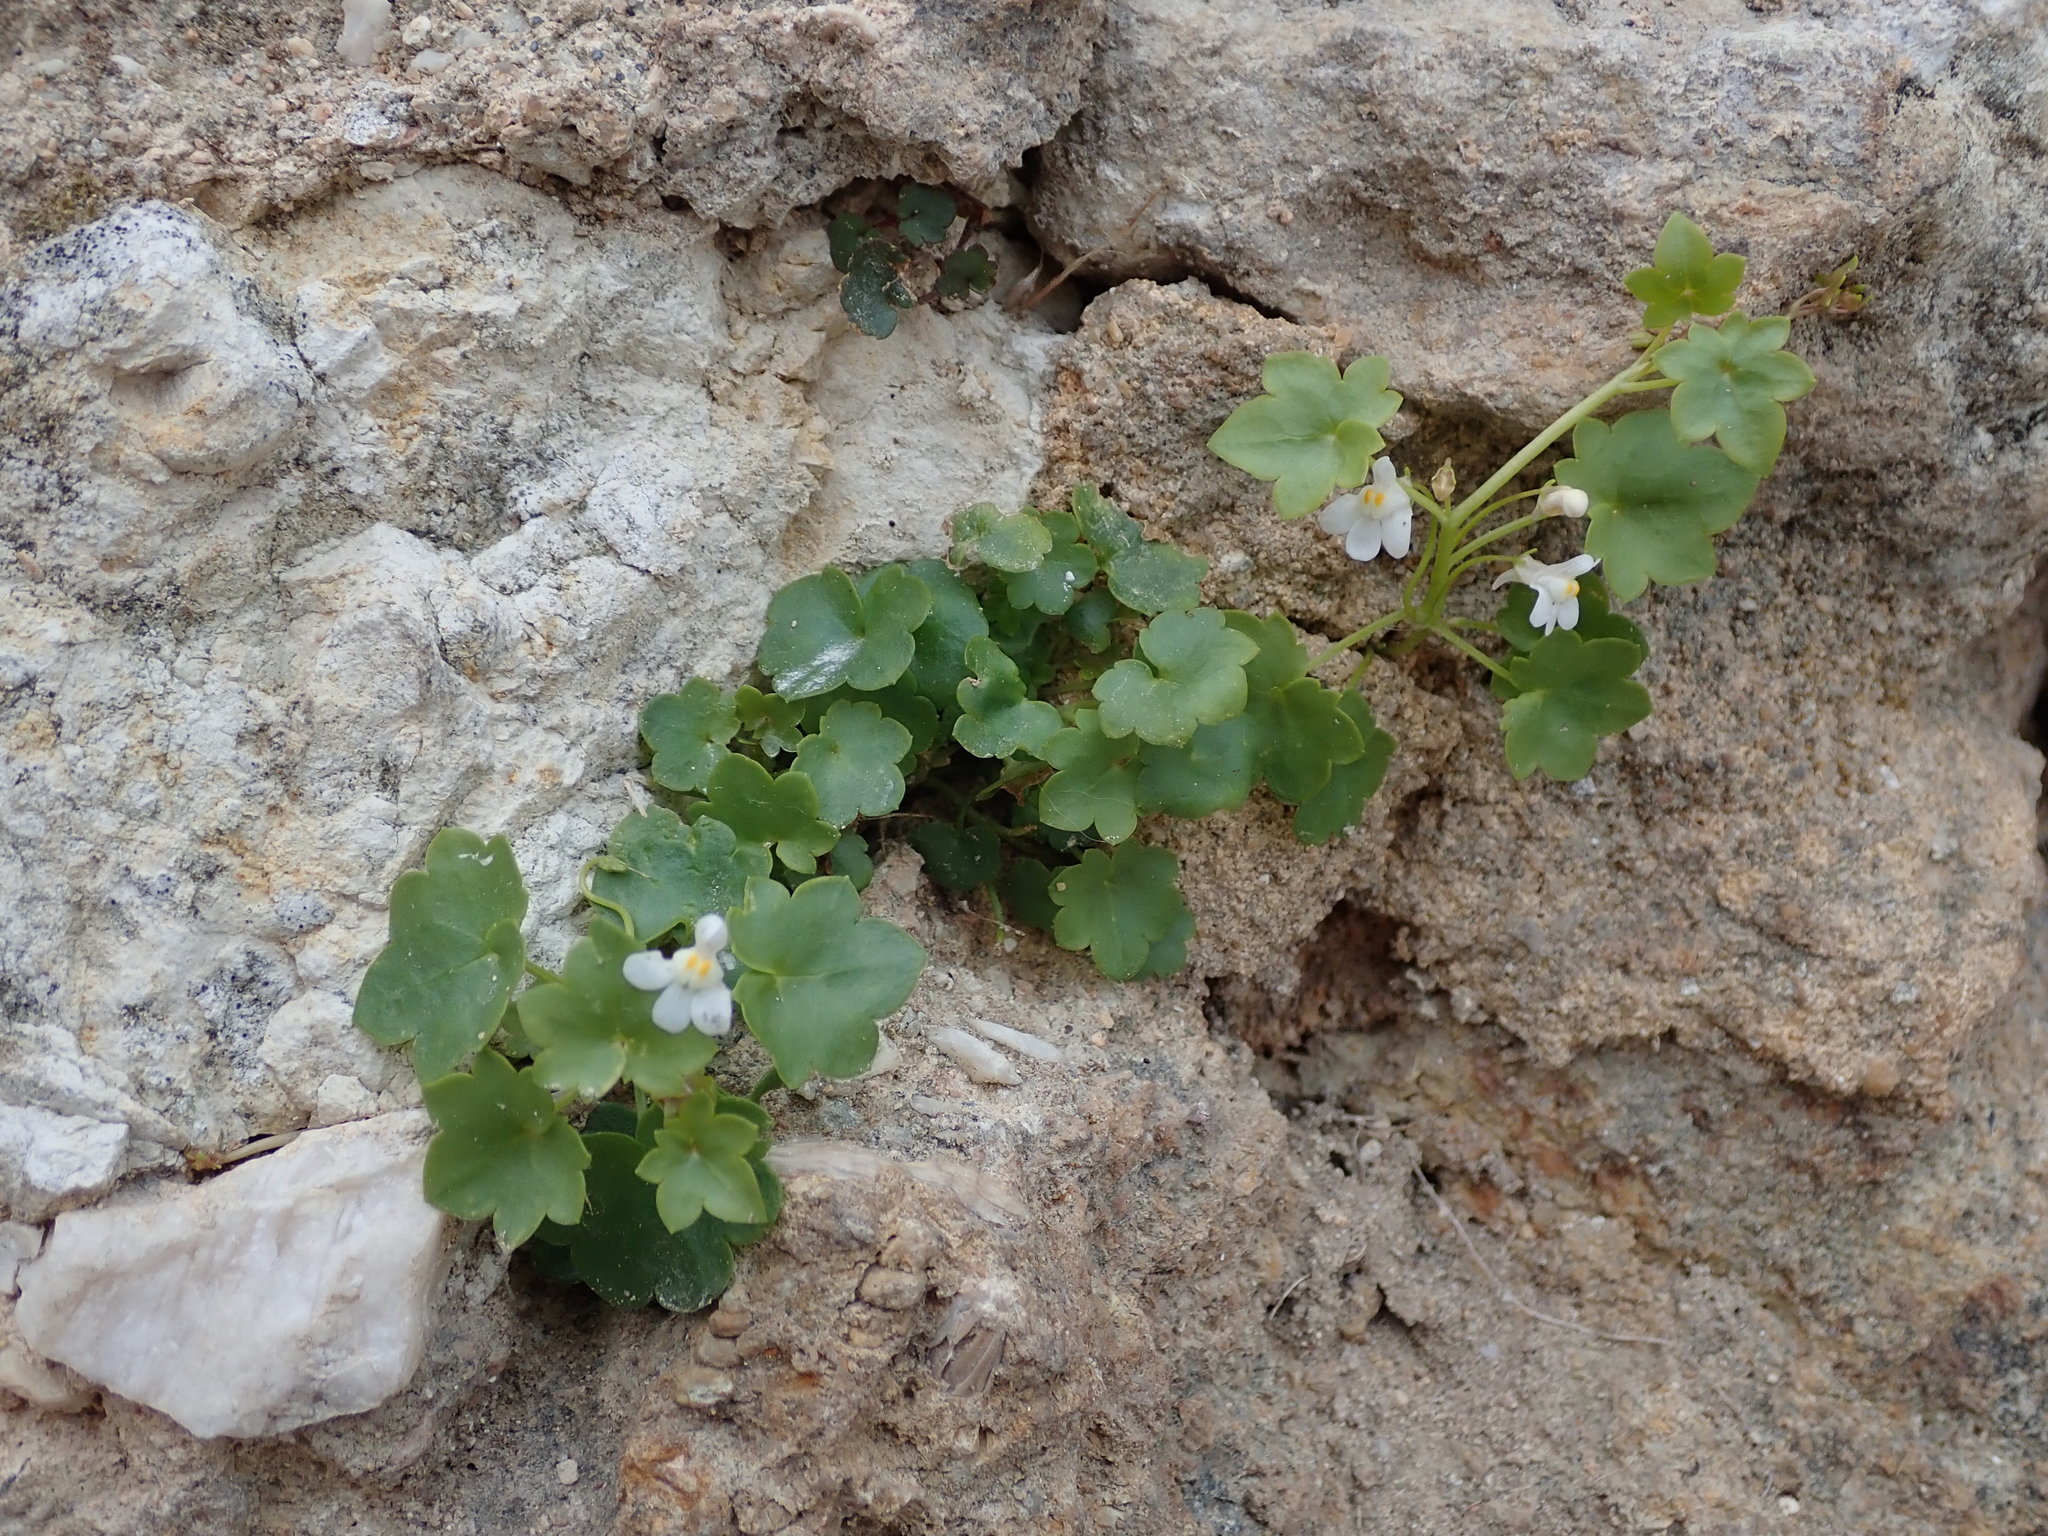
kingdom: Plantae
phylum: Tracheophyta
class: Magnoliopsida
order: Lamiales
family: Plantaginaceae
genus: Cymbalaria
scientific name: Cymbalaria muralis
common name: Ivy-leaved toadflax
